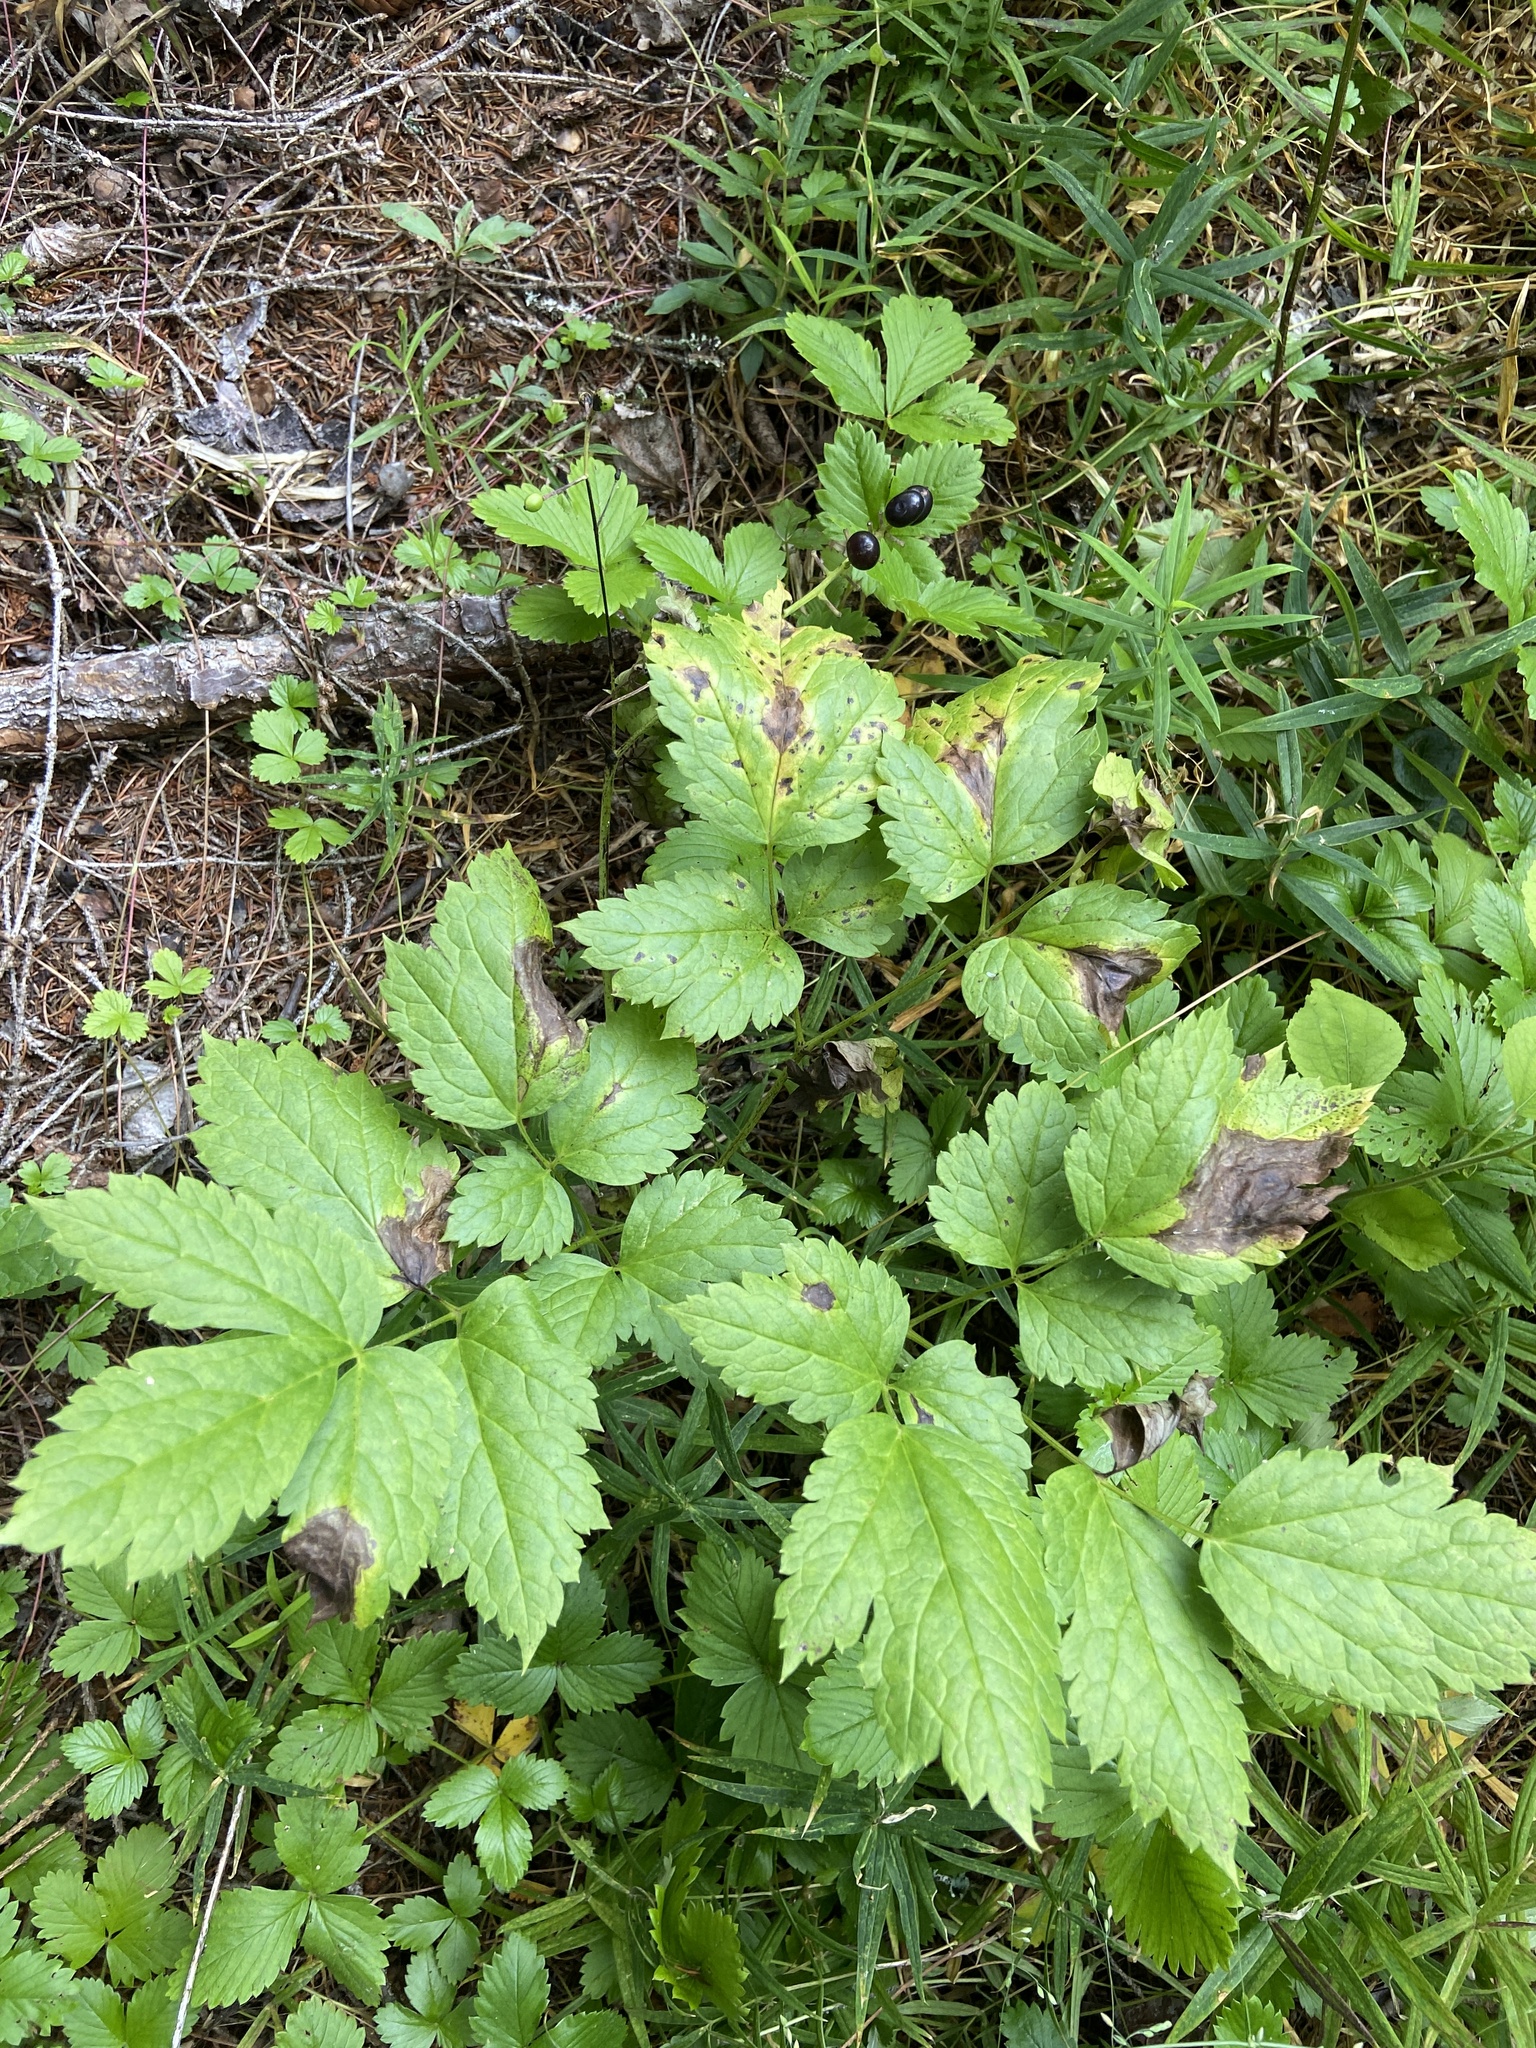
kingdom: Plantae
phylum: Tracheophyta
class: Magnoliopsida
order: Ranunculales
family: Ranunculaceae
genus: Actaea
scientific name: Actaea spicata
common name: Baneberry
